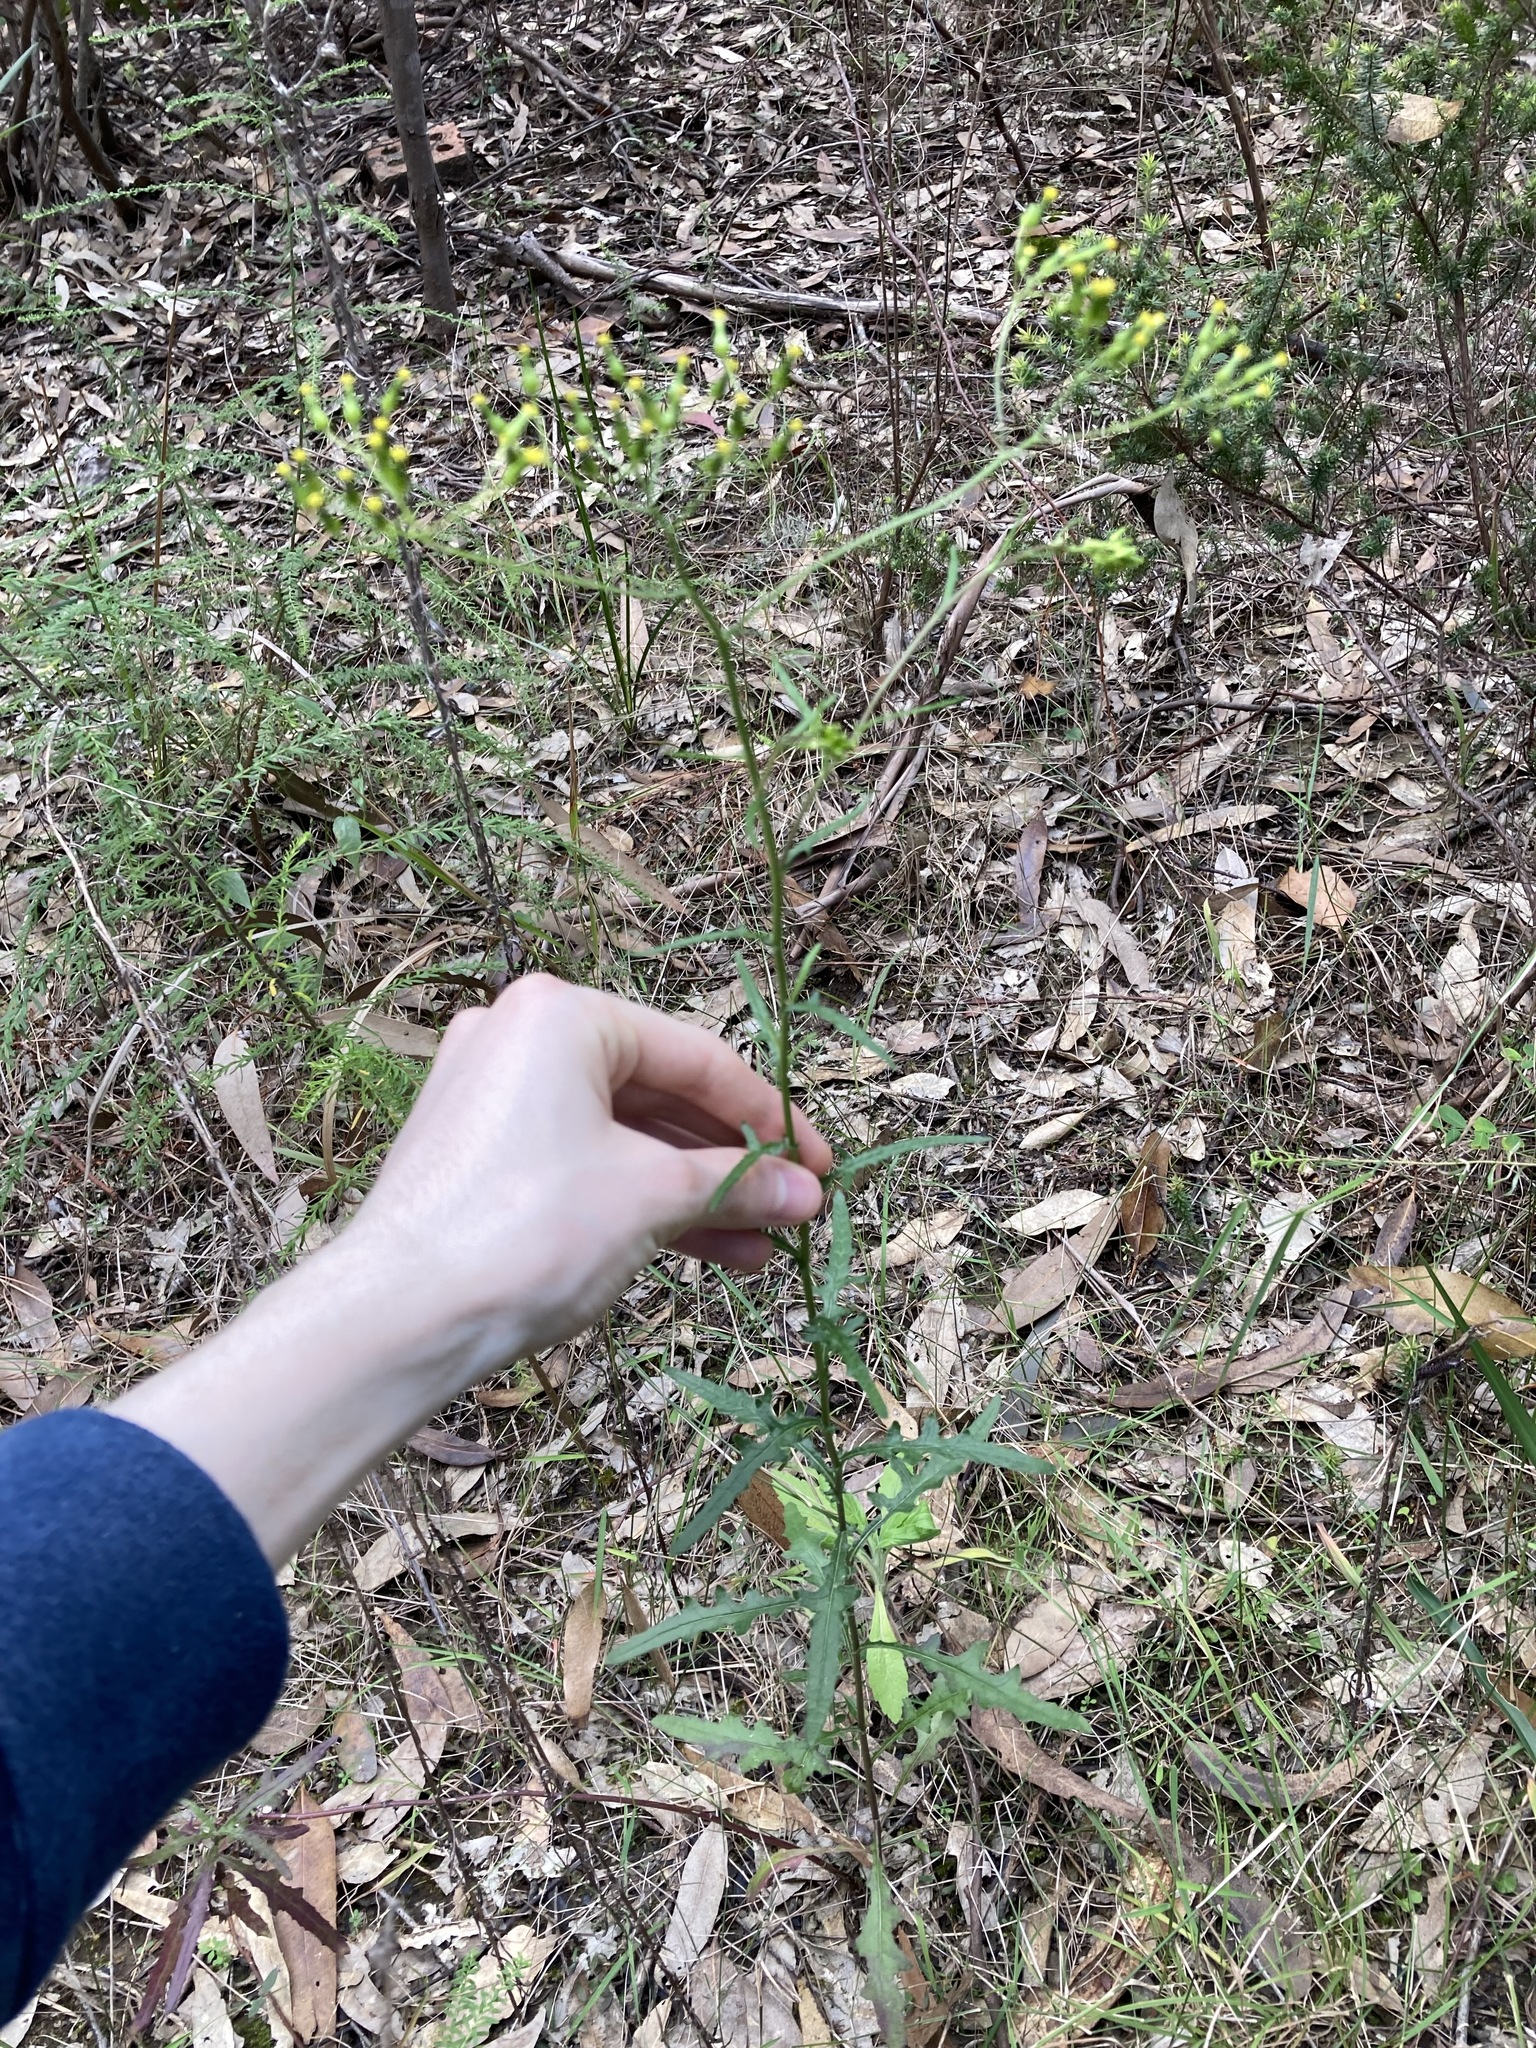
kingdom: Plantae
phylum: Tracheophyta
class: Magnoliopsida
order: Asterales
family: Asteraceae
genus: Senecio
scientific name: Senecio hispidulus
